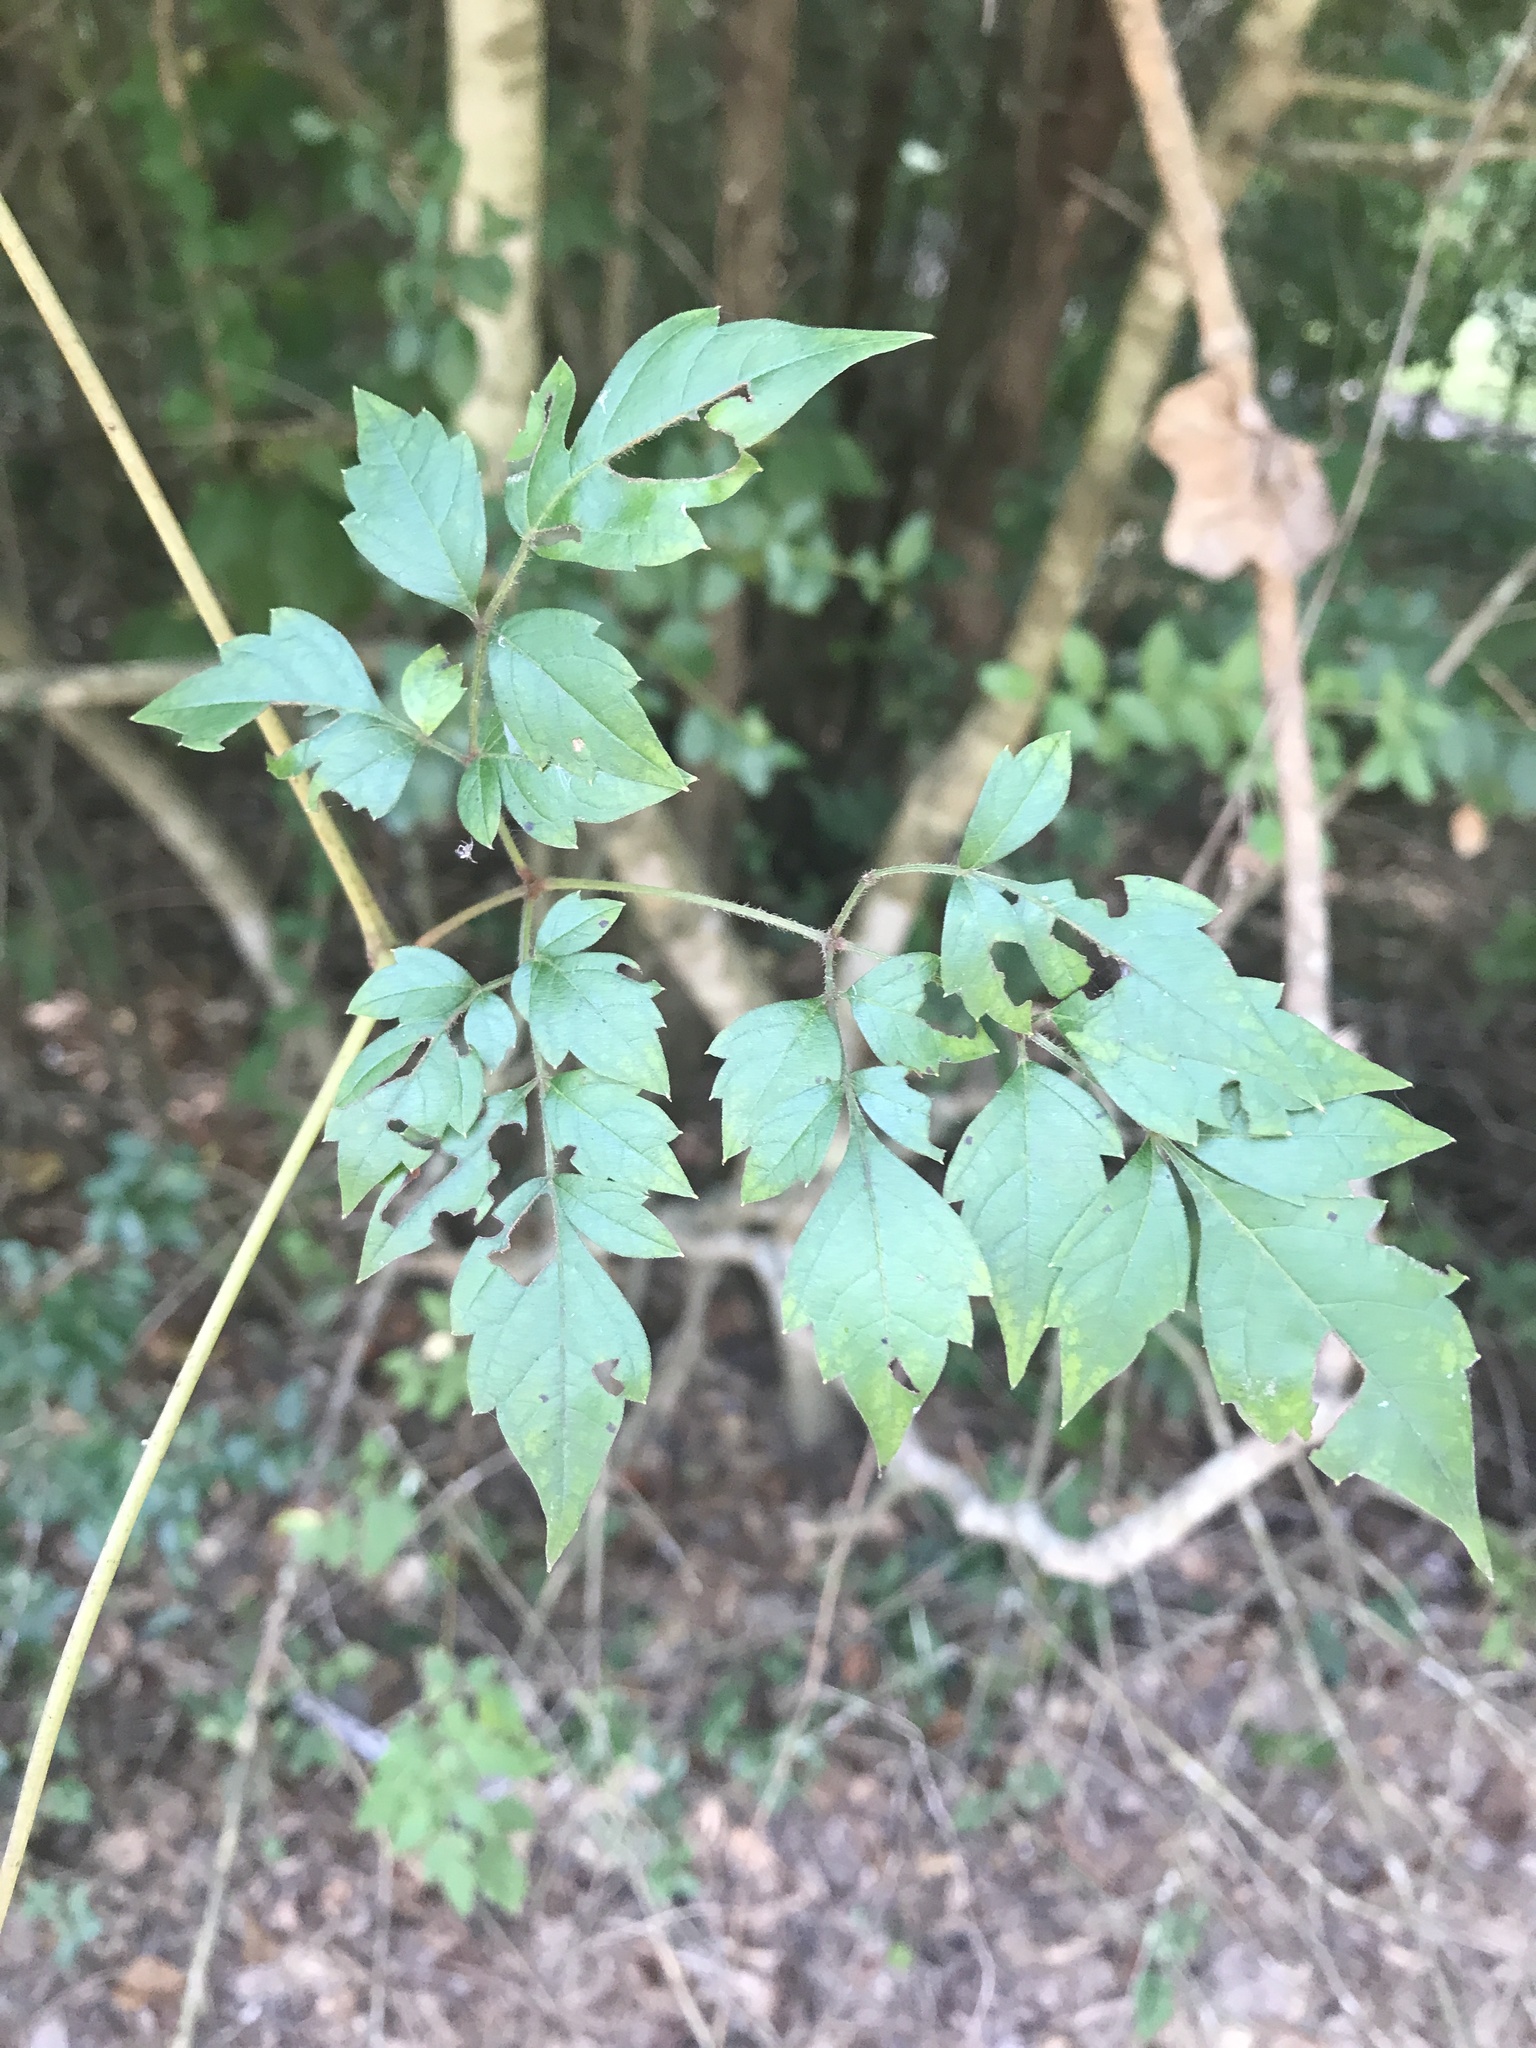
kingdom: Plantae
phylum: Tracheophyta
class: Magnoliopsida
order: Vitales
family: Vitaceae
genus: Nekemias
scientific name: Nekemias arborea
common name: Peppervine
